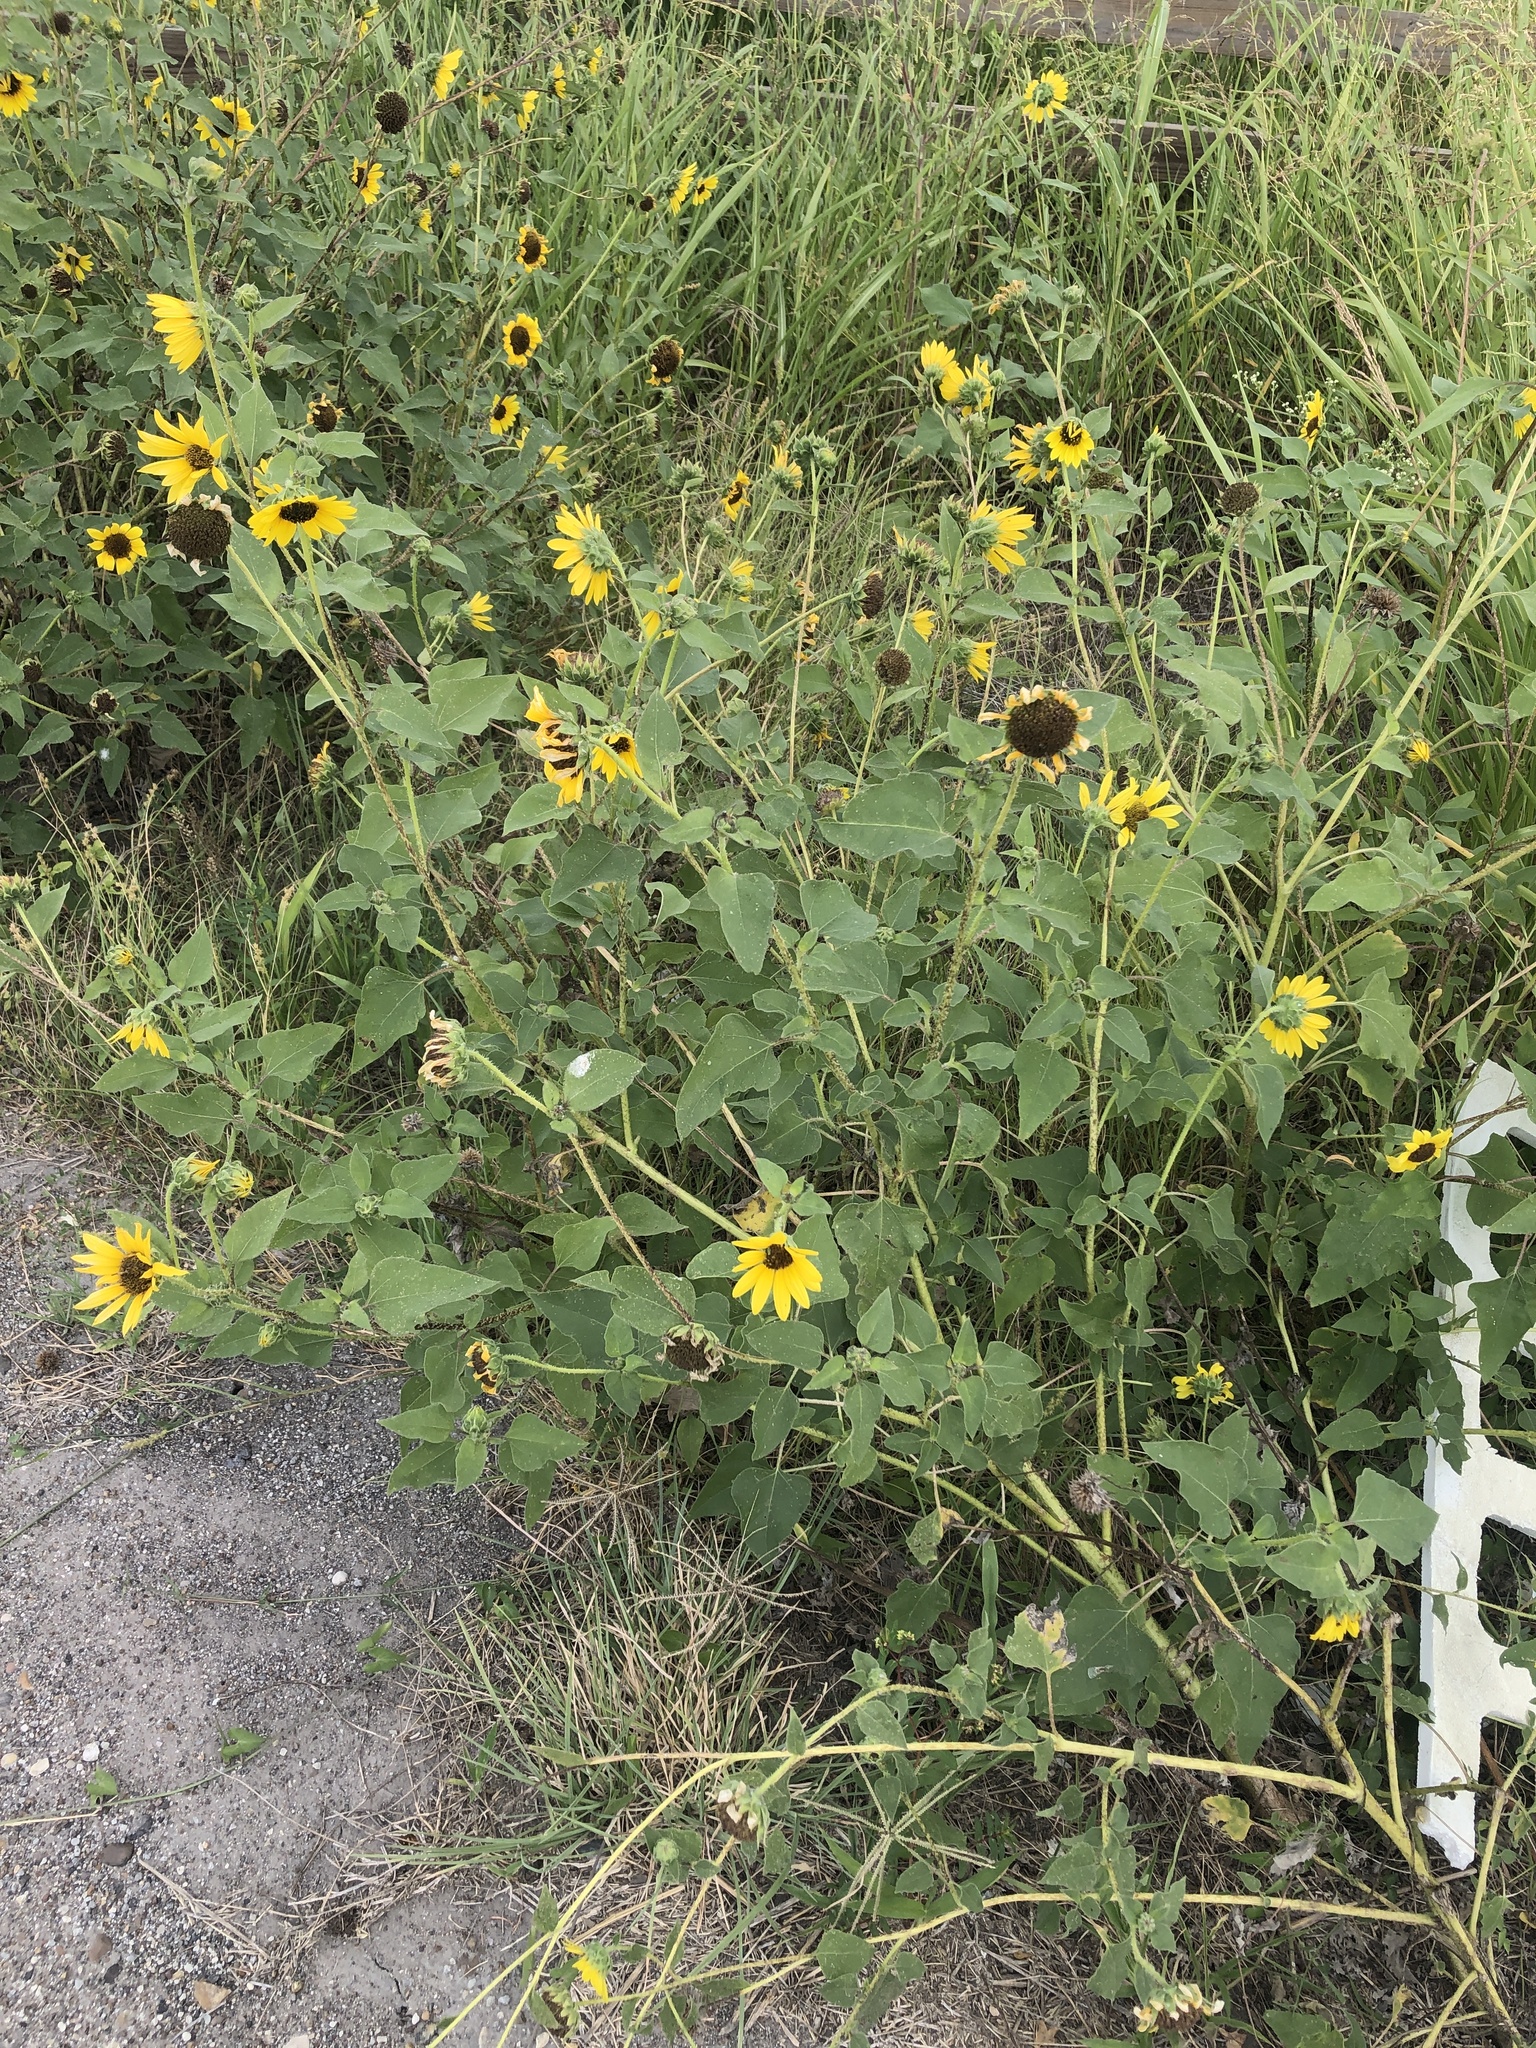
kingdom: Plantae
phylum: Tracheophyta
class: Magnoliopsida
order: Asterales
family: Asteraceae
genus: Helianthus
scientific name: Helianthus annuus
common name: Sunflower
